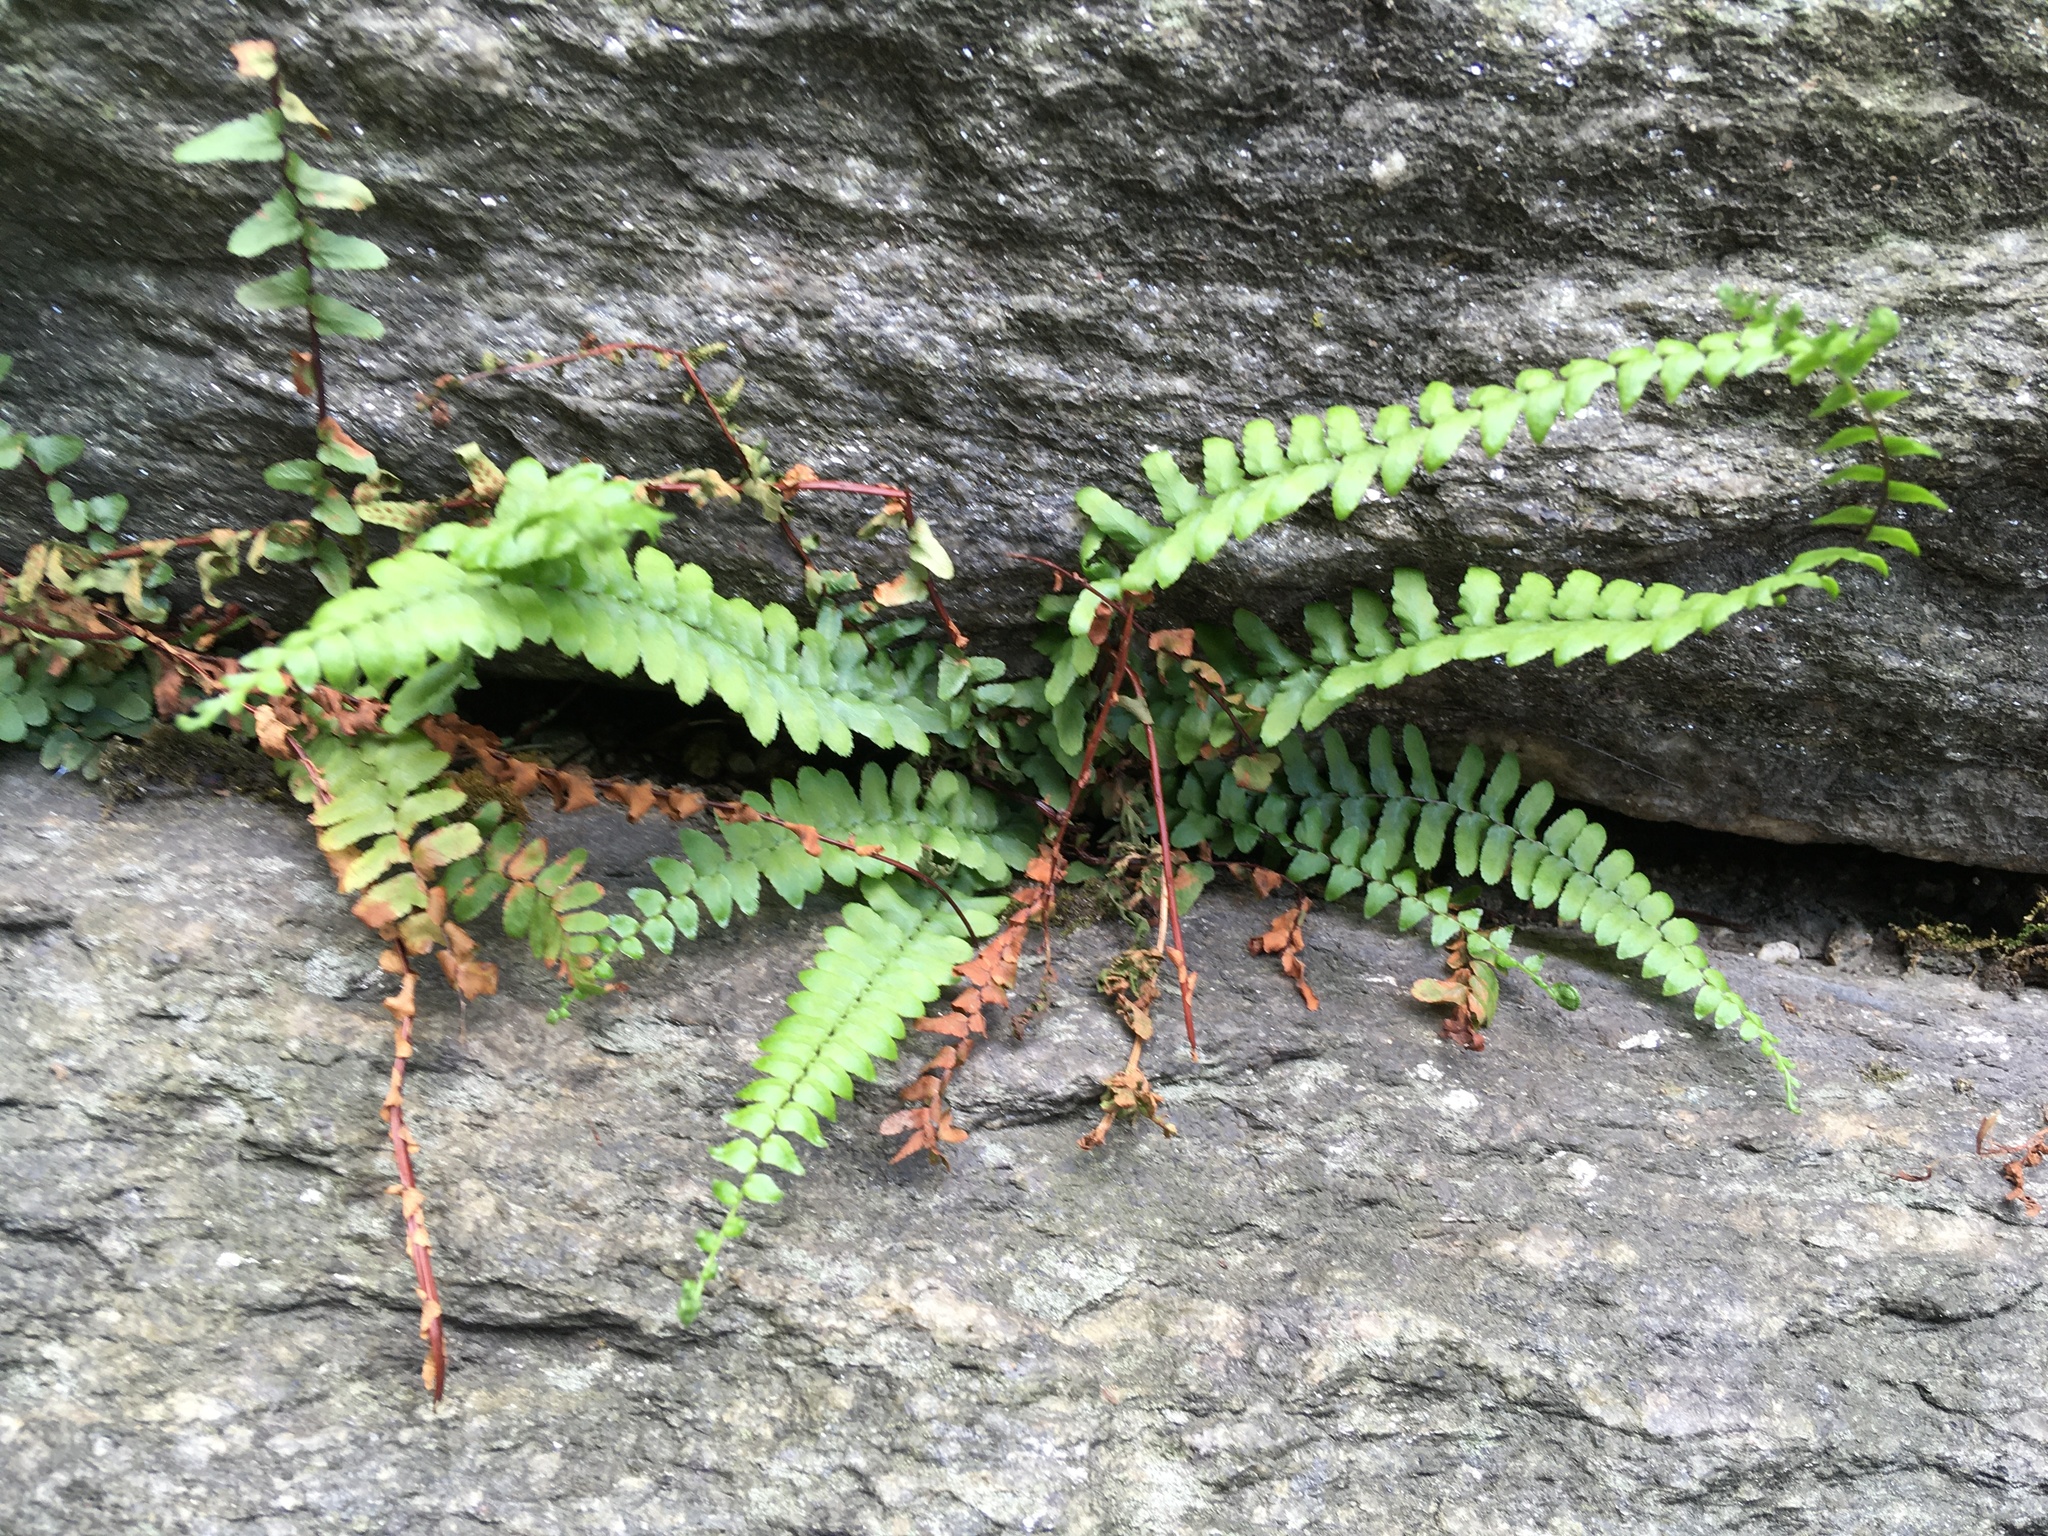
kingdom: Plantae
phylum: Tracheophyta
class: Polypodiopsida
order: Polypodiales
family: Aspleniaceae
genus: Asplenium
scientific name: Asplenium platyneuron
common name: Ebony spleenwort
